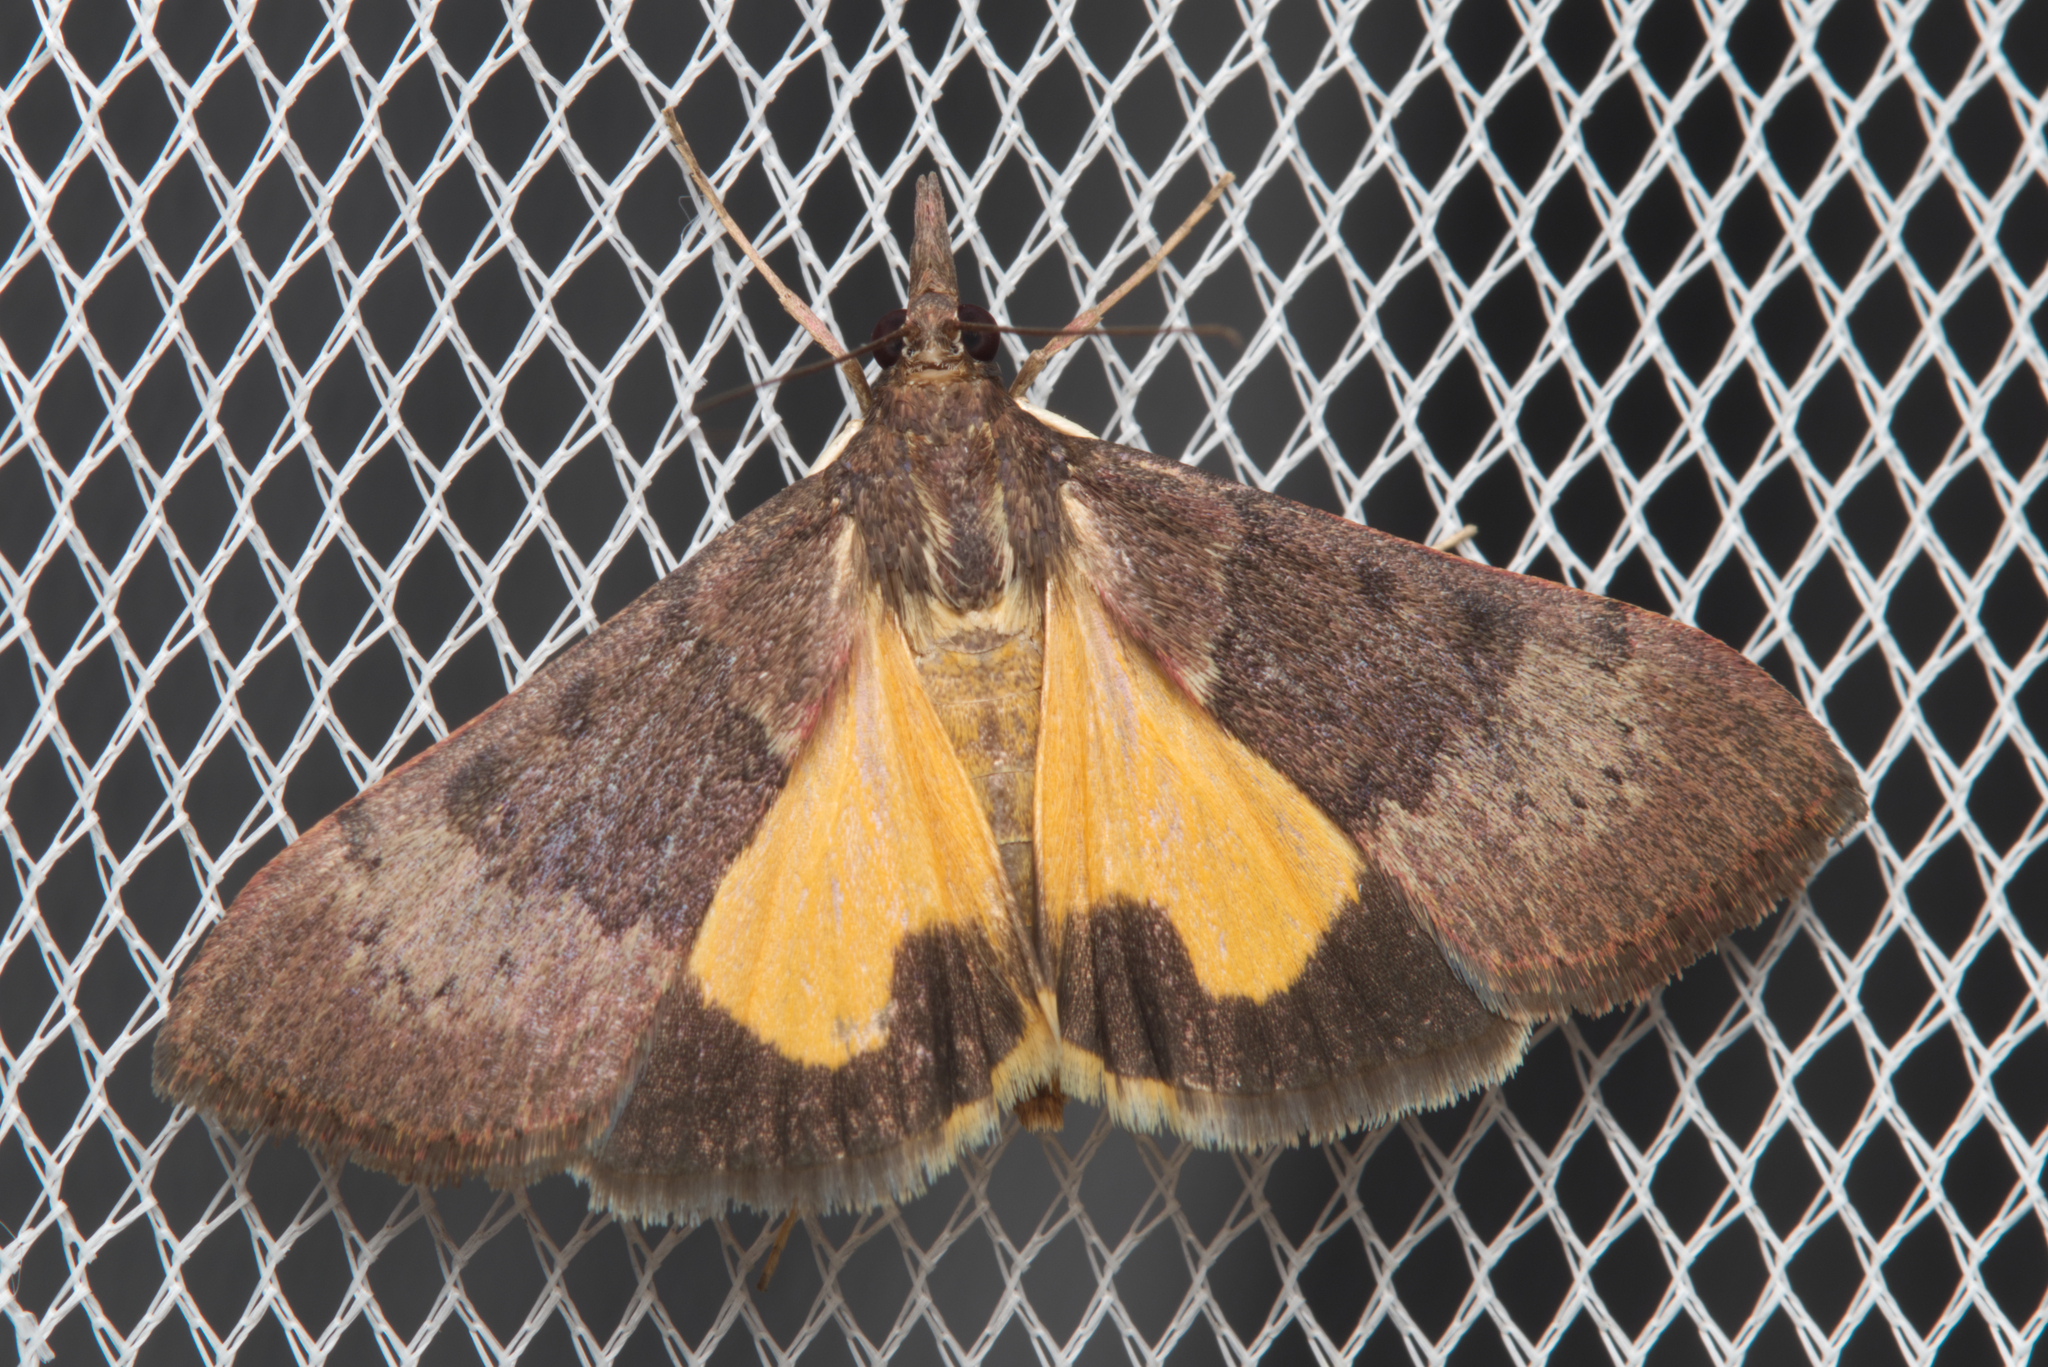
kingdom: Animalia
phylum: Arthropoda
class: Insecta
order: Lepidoptera
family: Crambidae
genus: Uresiphita
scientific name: Uresiphita ornithopteralis
